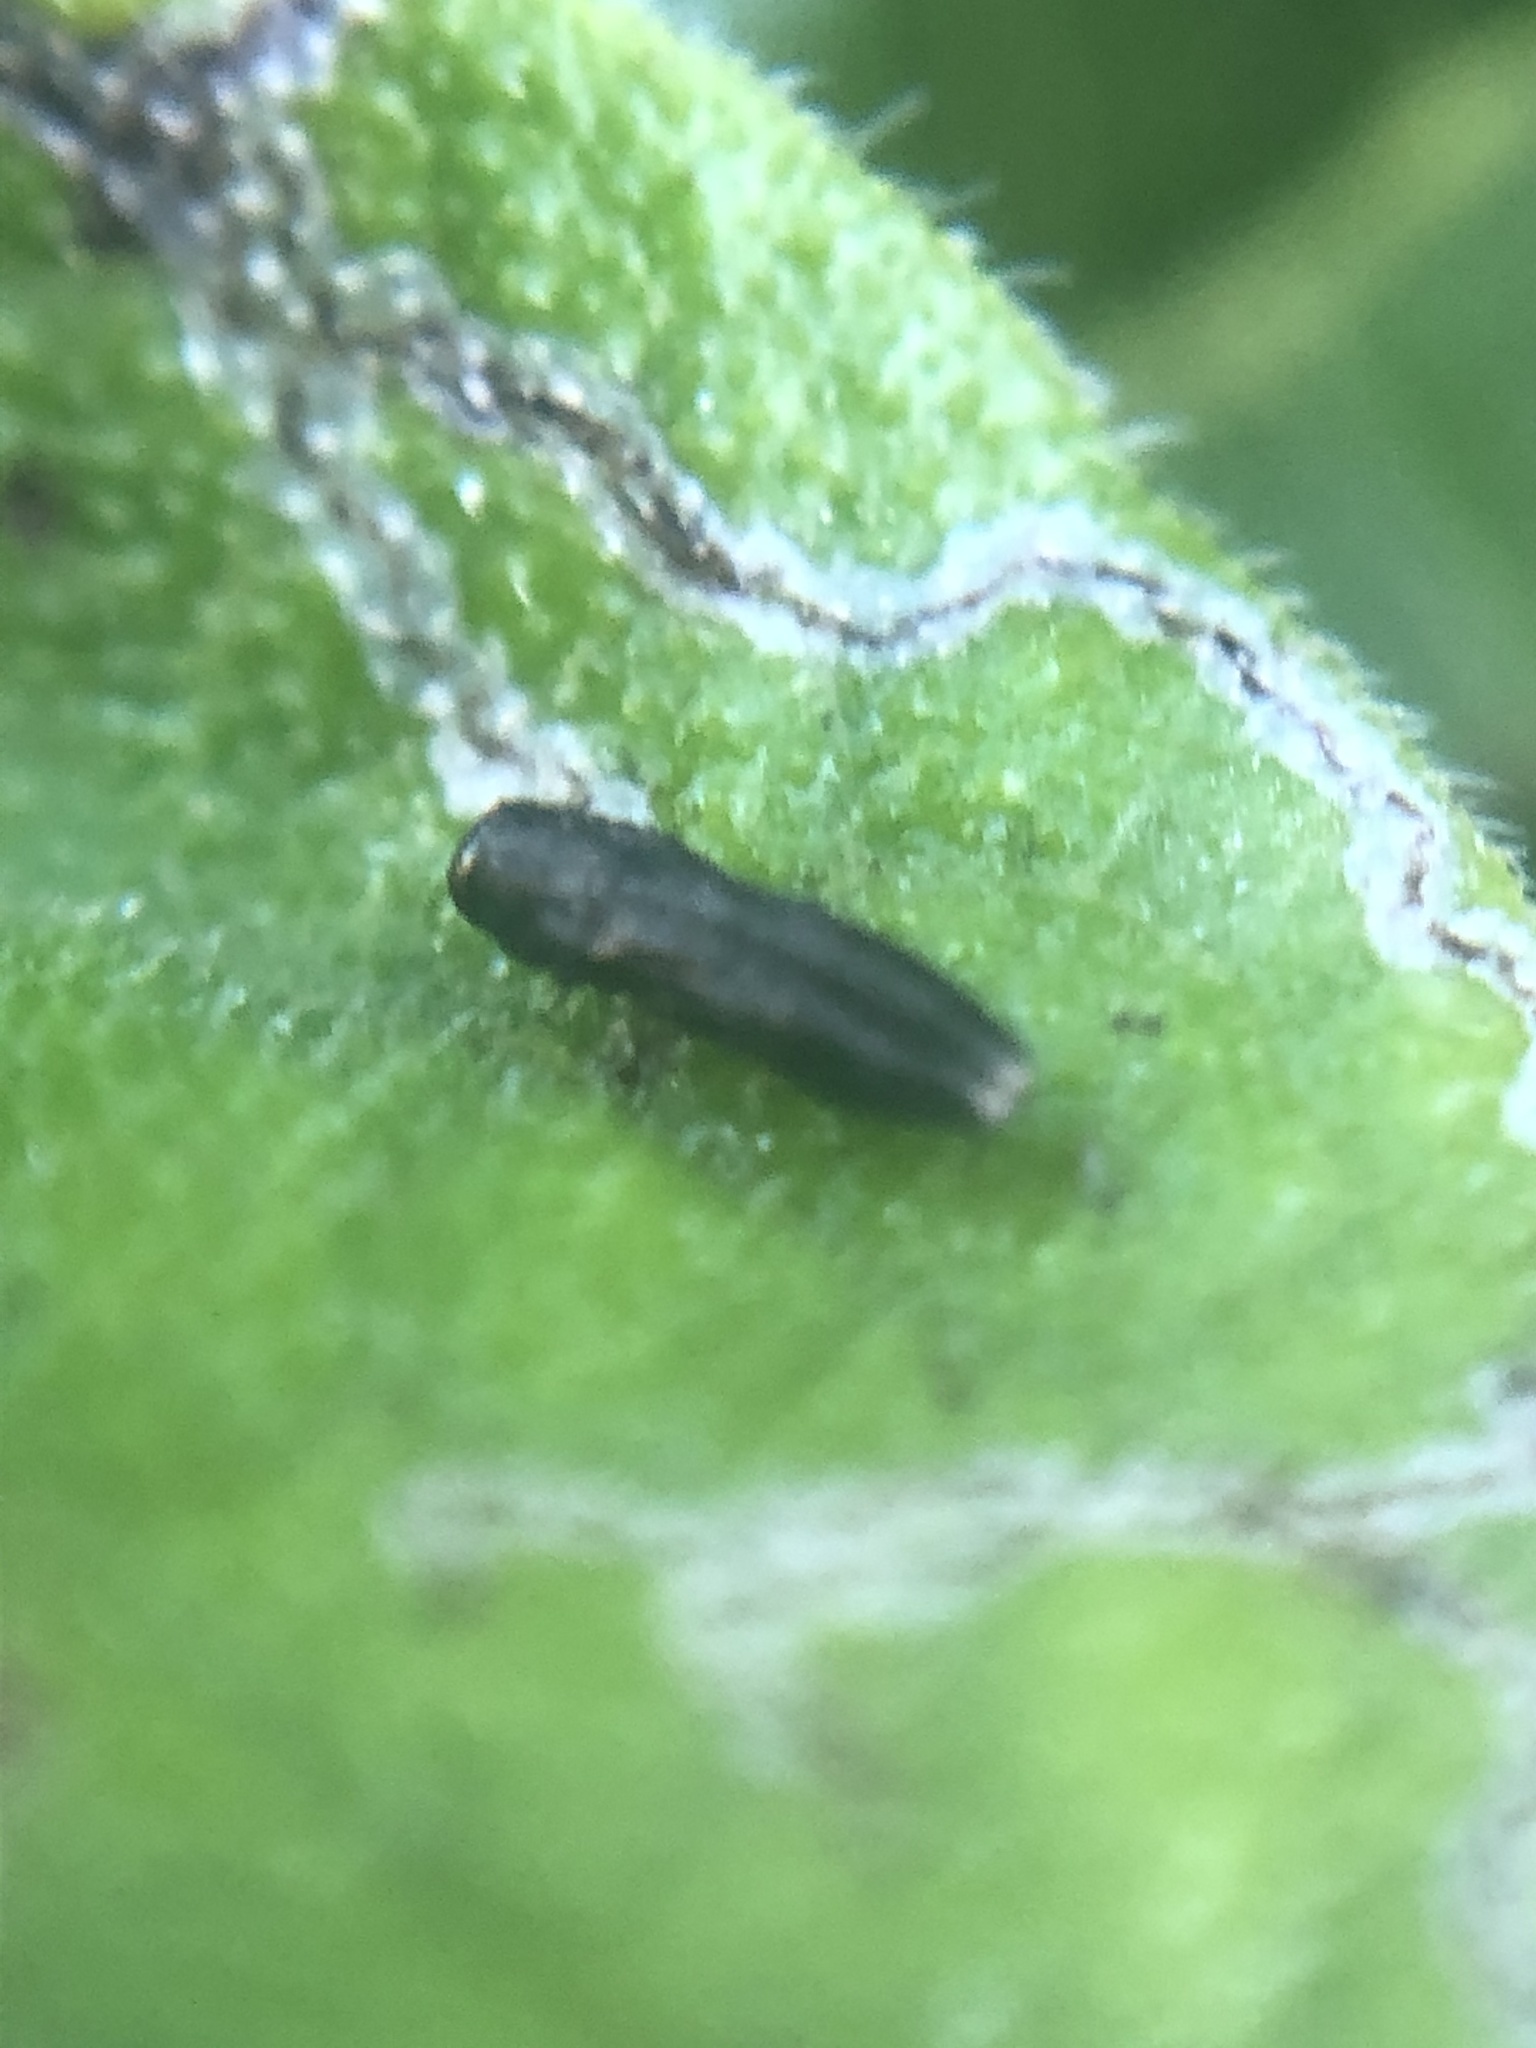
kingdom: Animalia
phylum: Arthropoda
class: Insecta
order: Coleoptera
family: Buprestidae
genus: Paragrilus
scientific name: Paragrilus rugatulus
